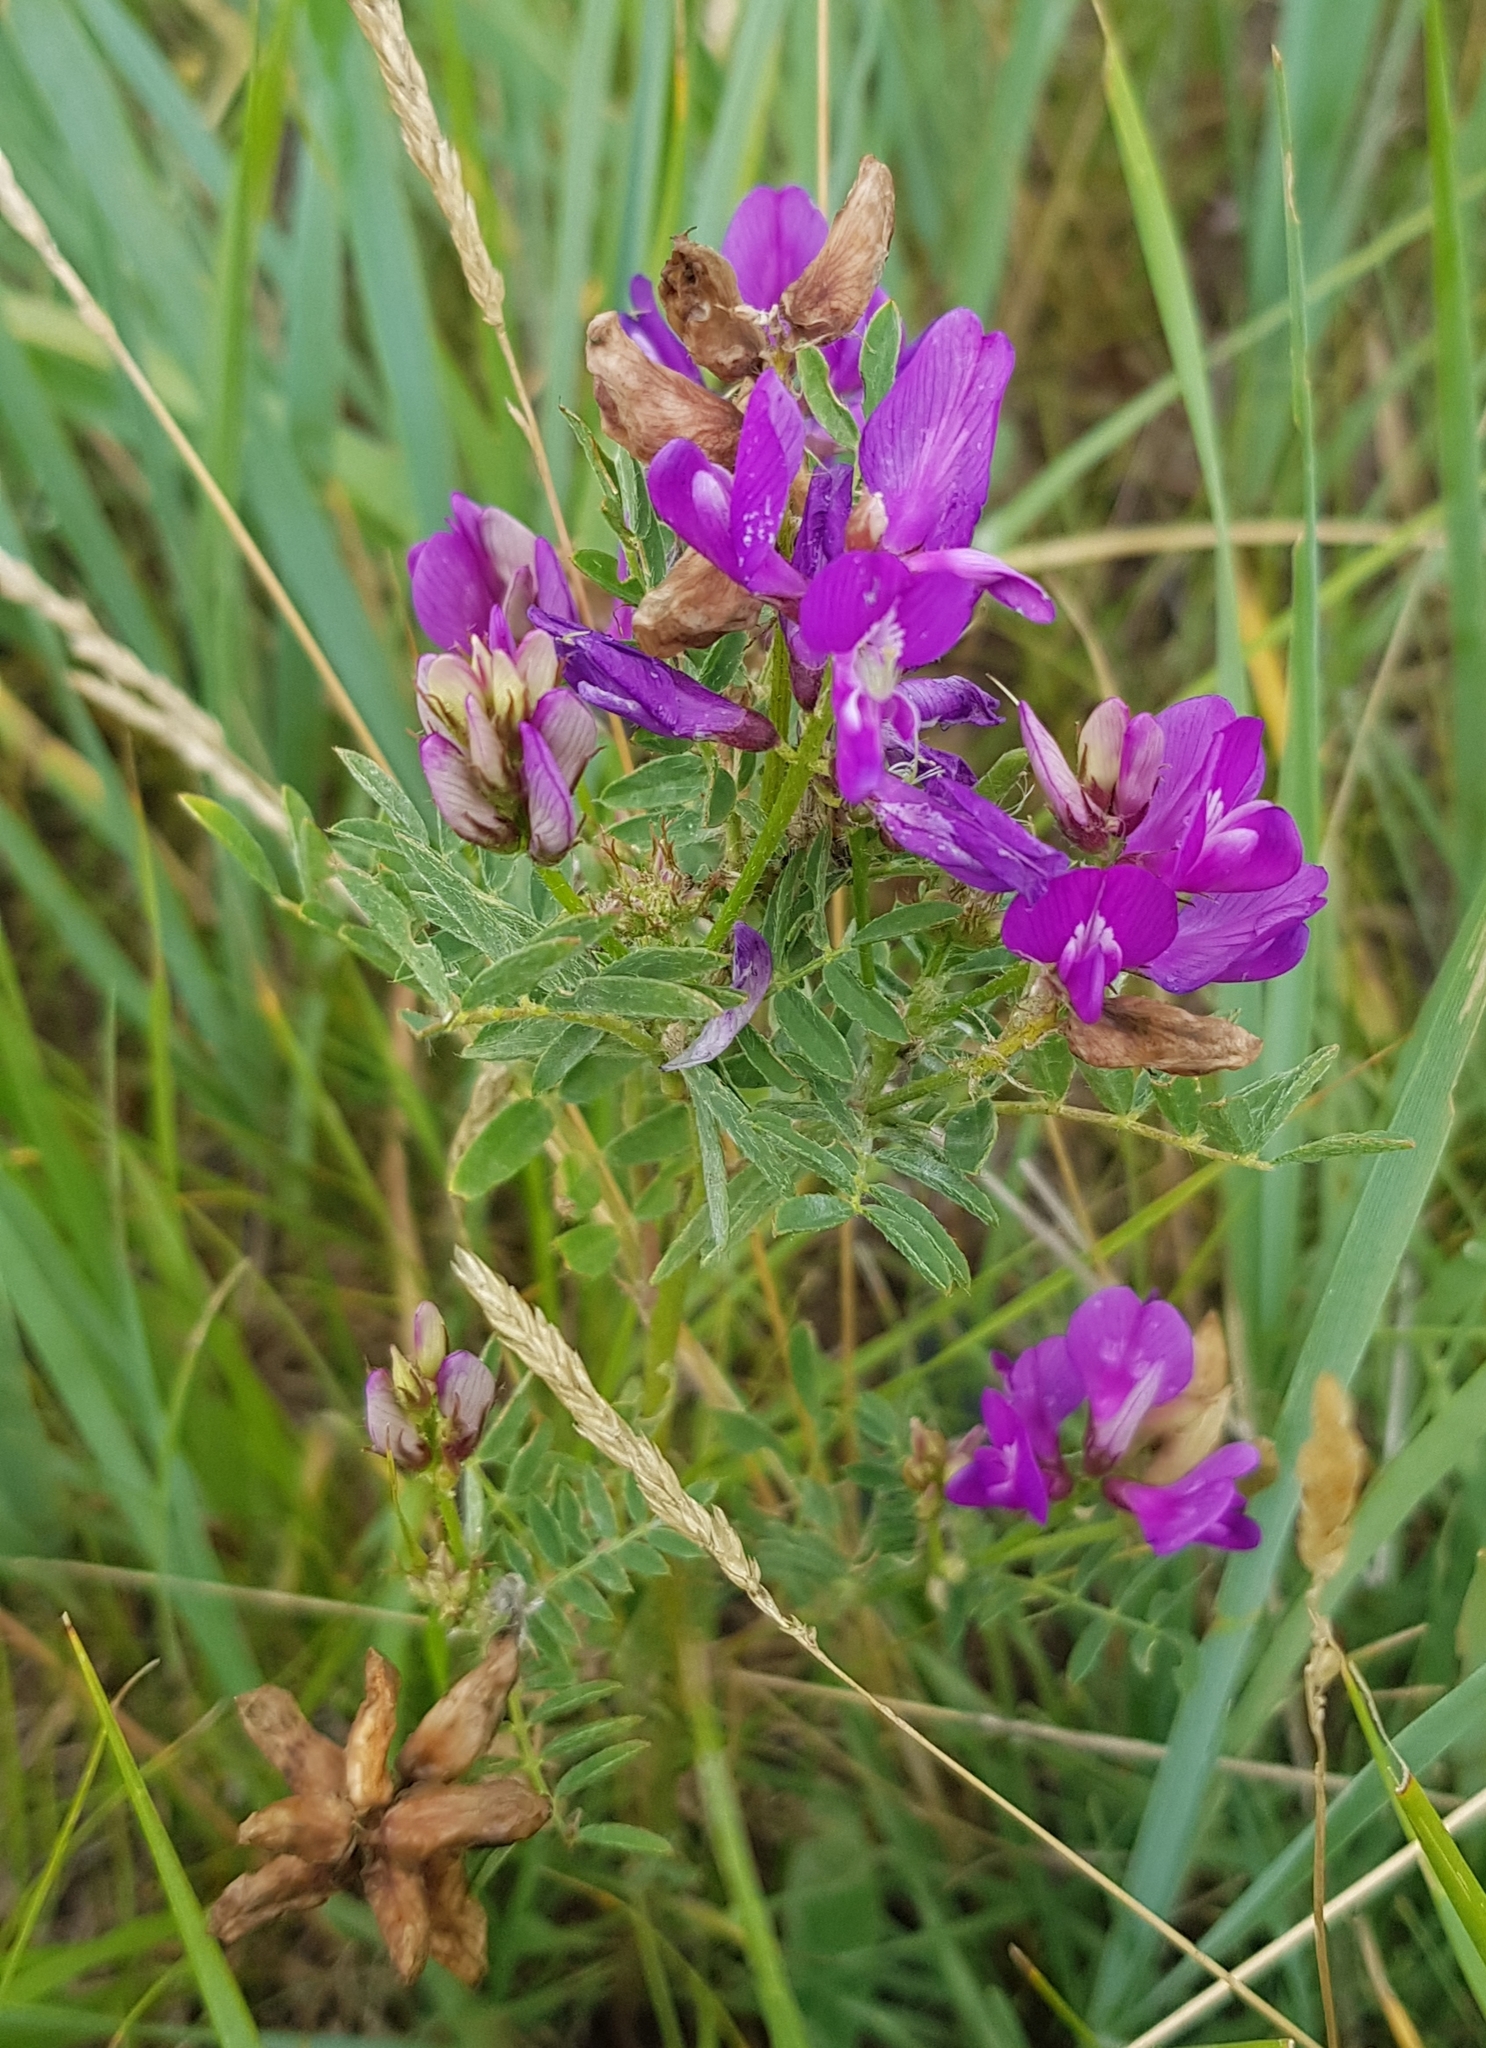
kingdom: Plantae
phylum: Tracheophyta
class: Magnoliopsida
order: Fabales
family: Fabaceae
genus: Astragalus
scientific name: Astragalus danicus
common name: Purple milk-vetch
